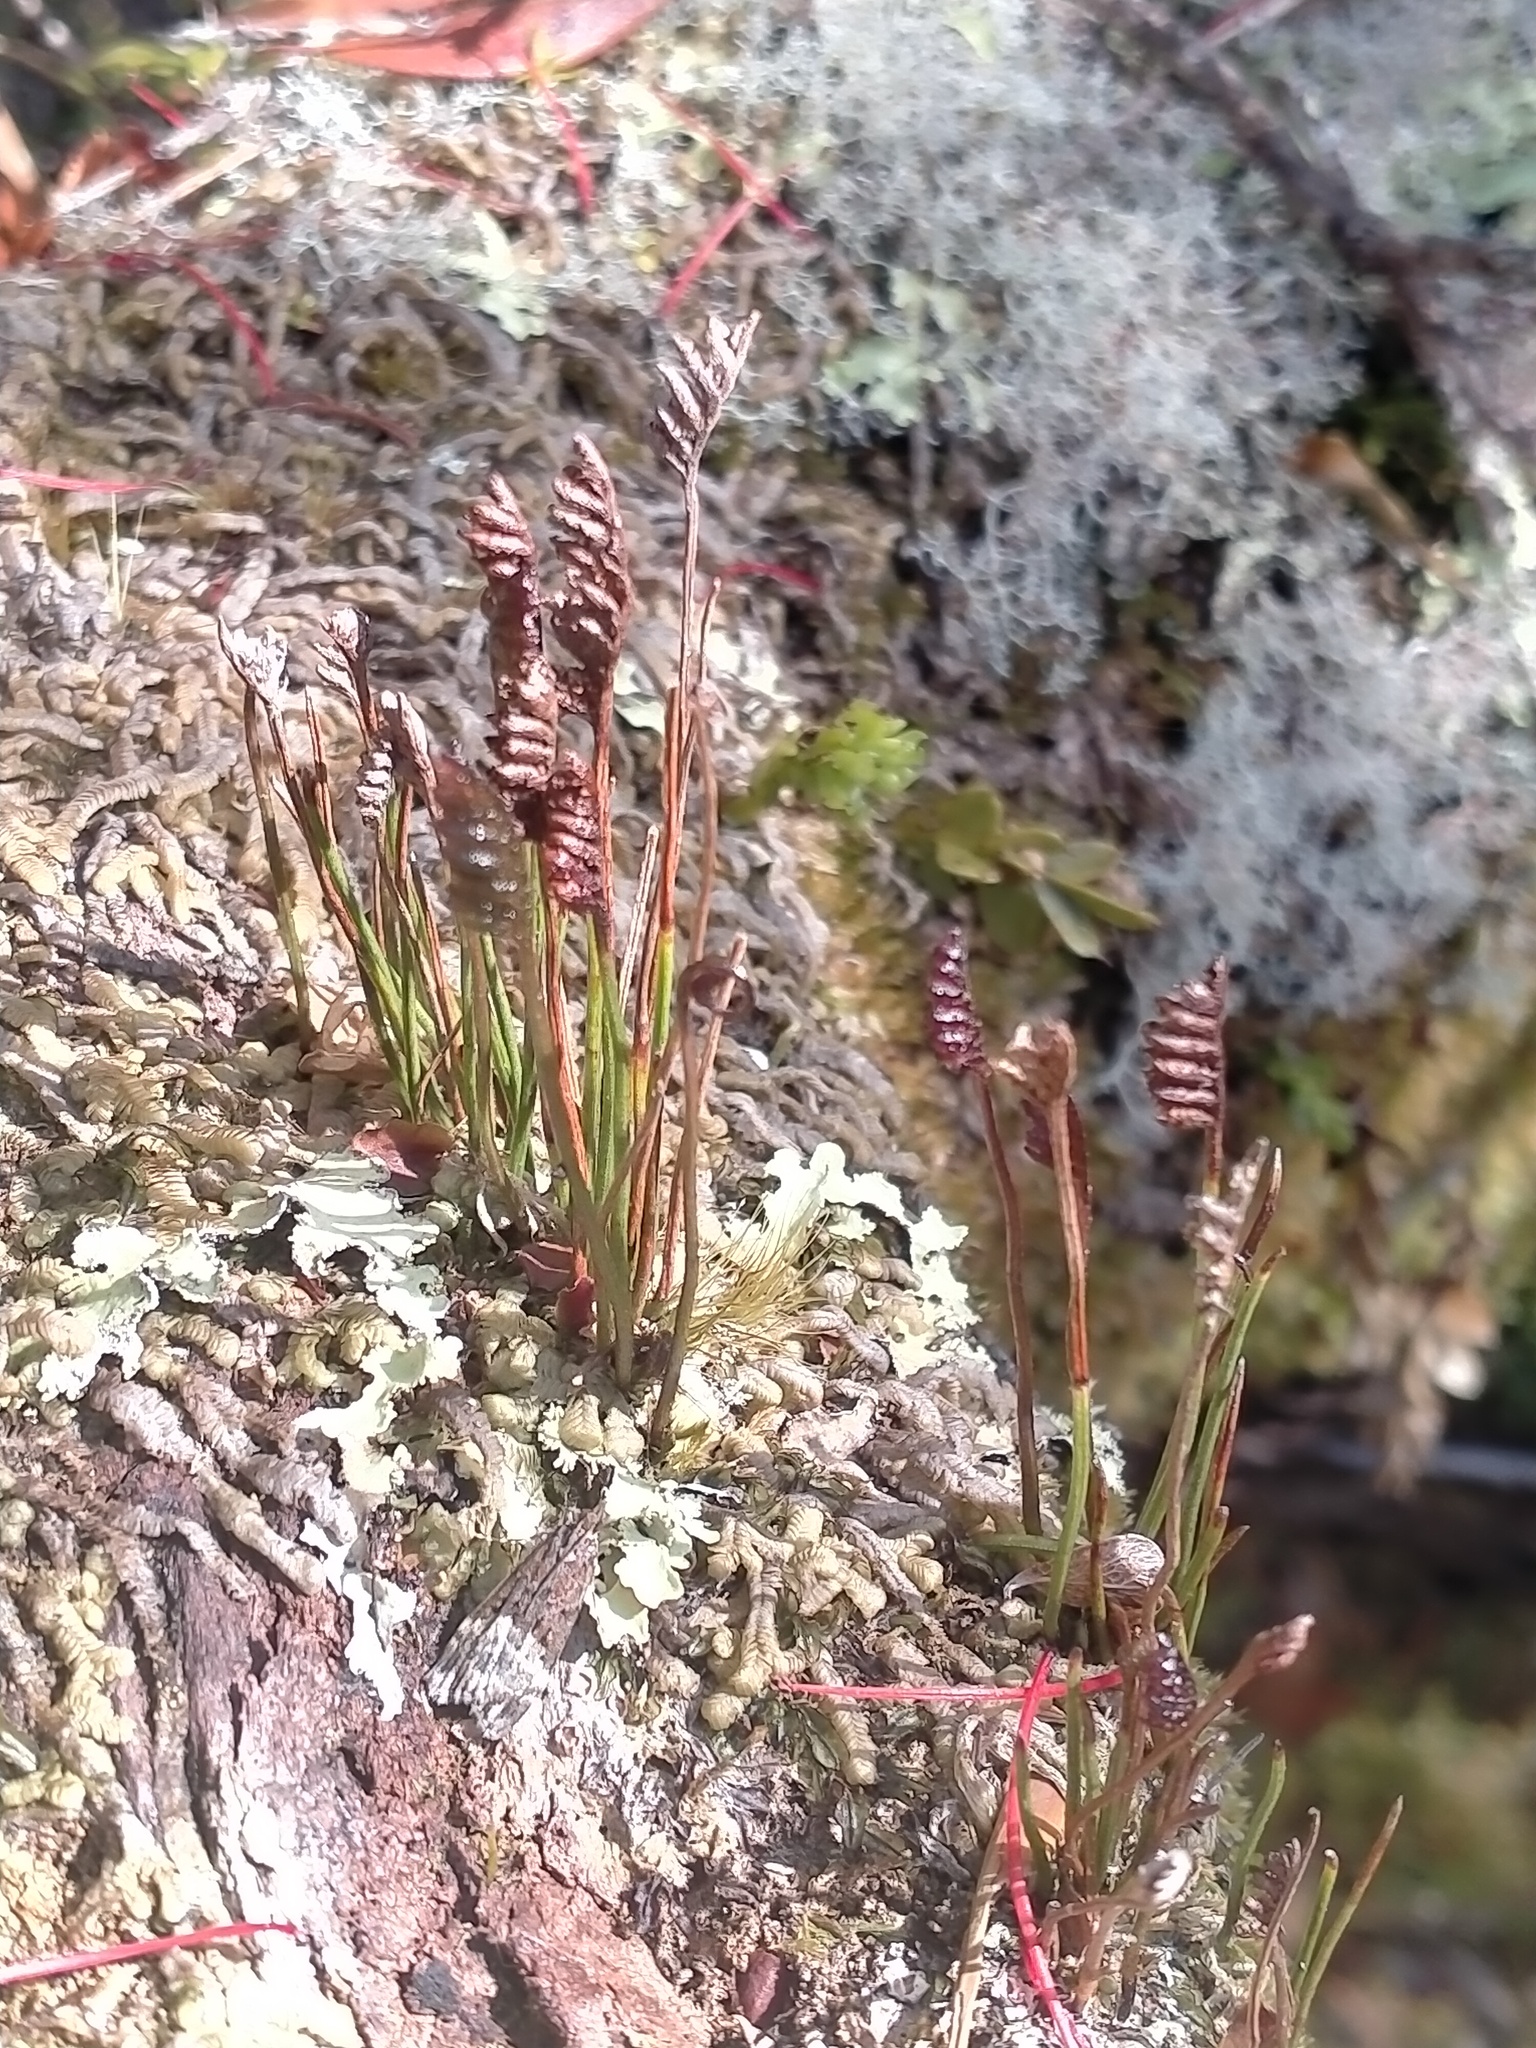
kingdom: Plantae
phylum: Tracheophyta
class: Polypodiopsida
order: Schizaeales
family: Schizaeaceae
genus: Microschizaea
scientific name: Microschizaea australis
